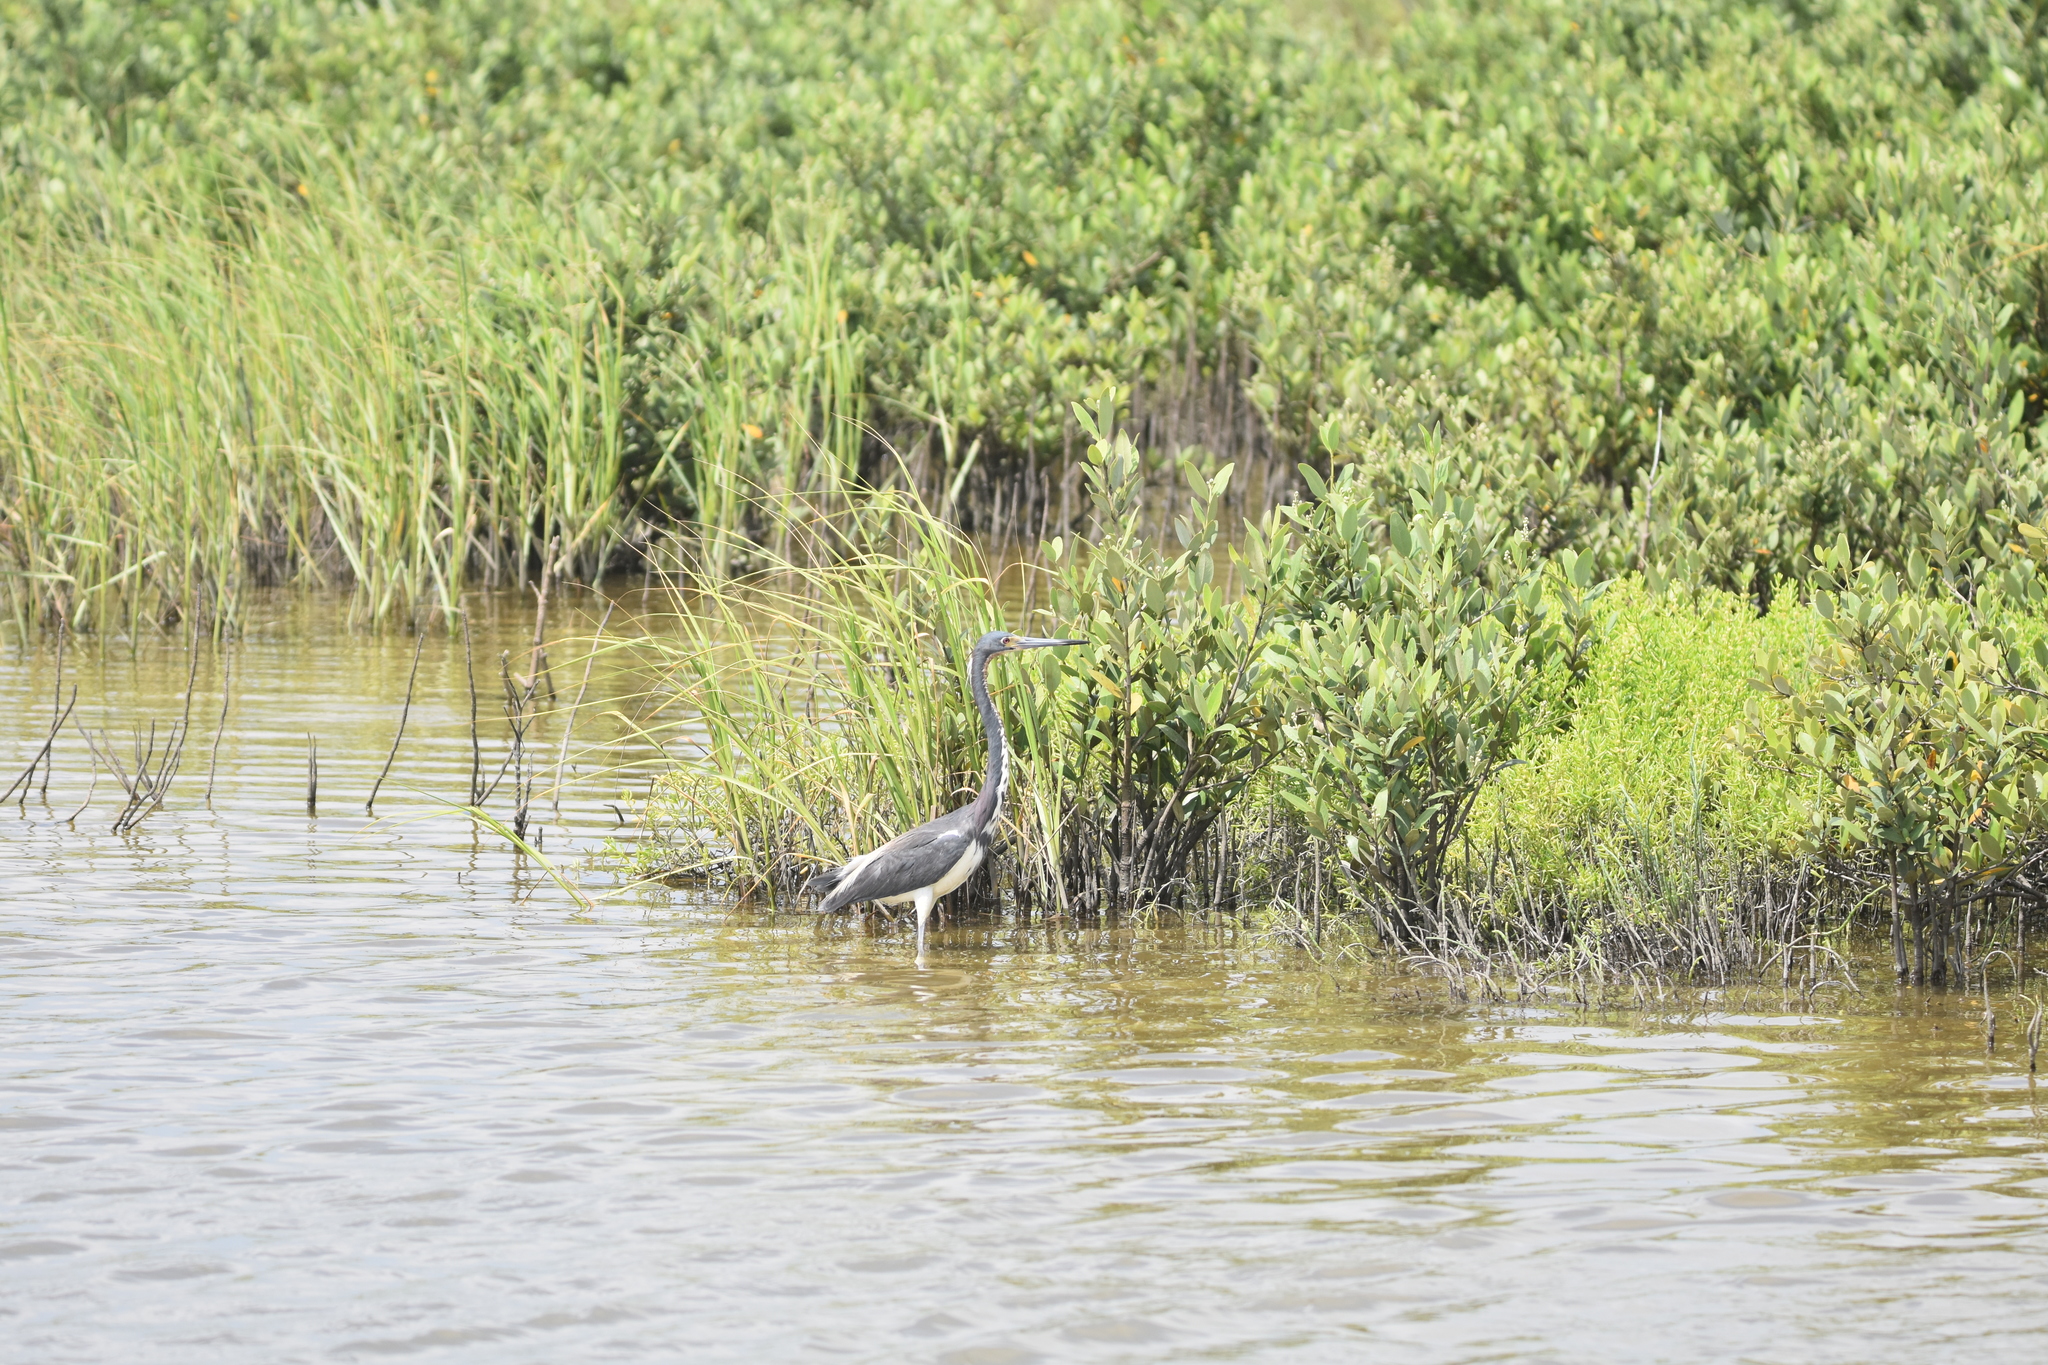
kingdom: Animalia
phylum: Chordata
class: Aves
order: Pelecaniformes
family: Ardeidae
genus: Egretta
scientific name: Egretta tricolor
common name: Tricolored heron
